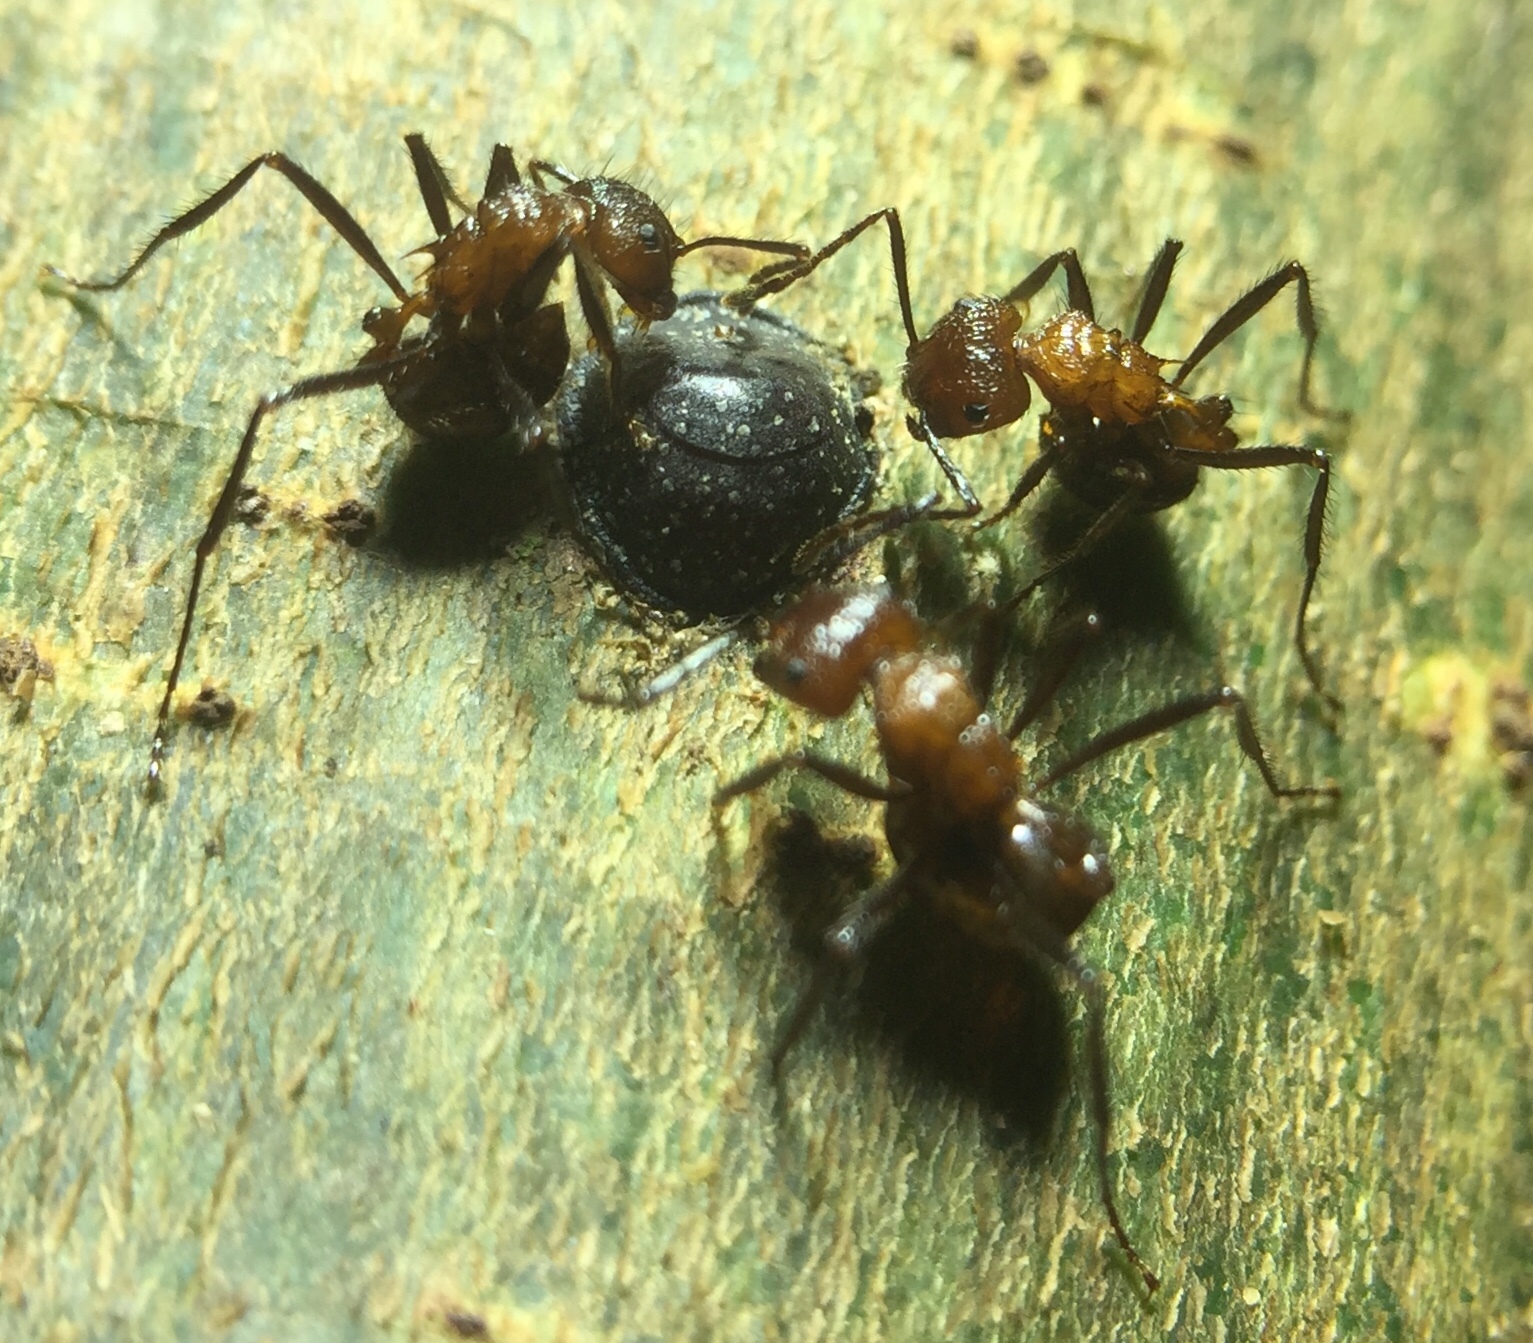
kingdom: Animalia
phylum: Arthropoda
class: Insecta
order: Hymenoptera
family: Formicidae
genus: Myrmicaria
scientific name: Myrmicaria baumi
